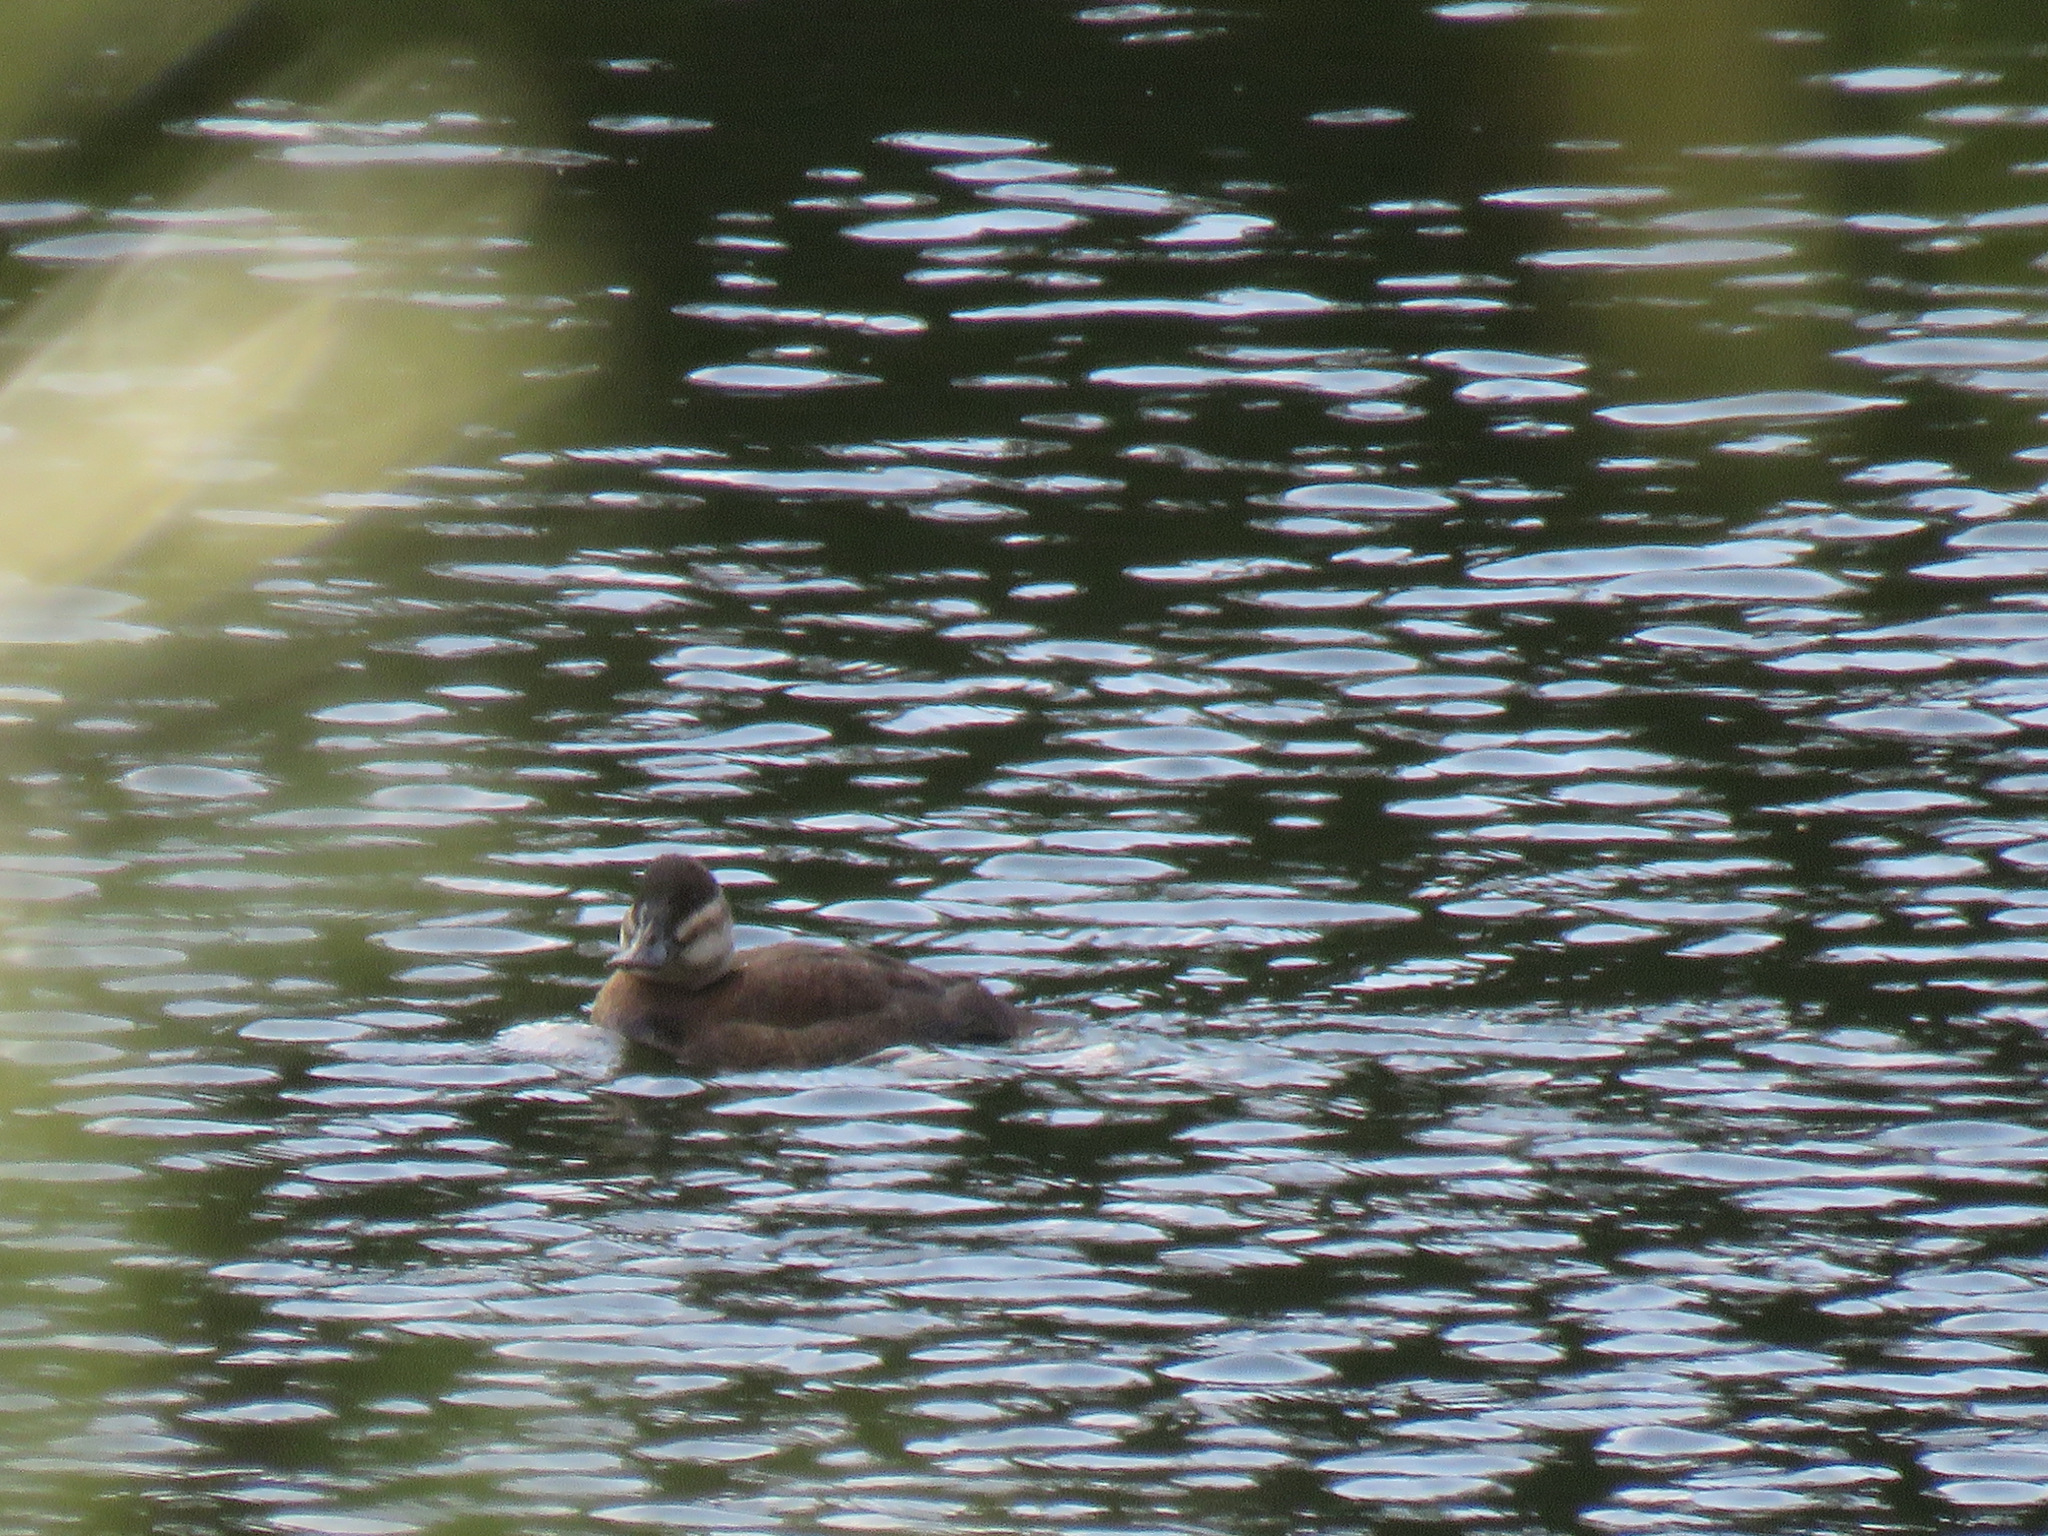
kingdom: Animalia
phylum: Chordata
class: Aves
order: Anseriformes
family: Anatidae
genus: Oxyura
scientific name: Oxyura jamaicensis
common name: Ruddy duck
